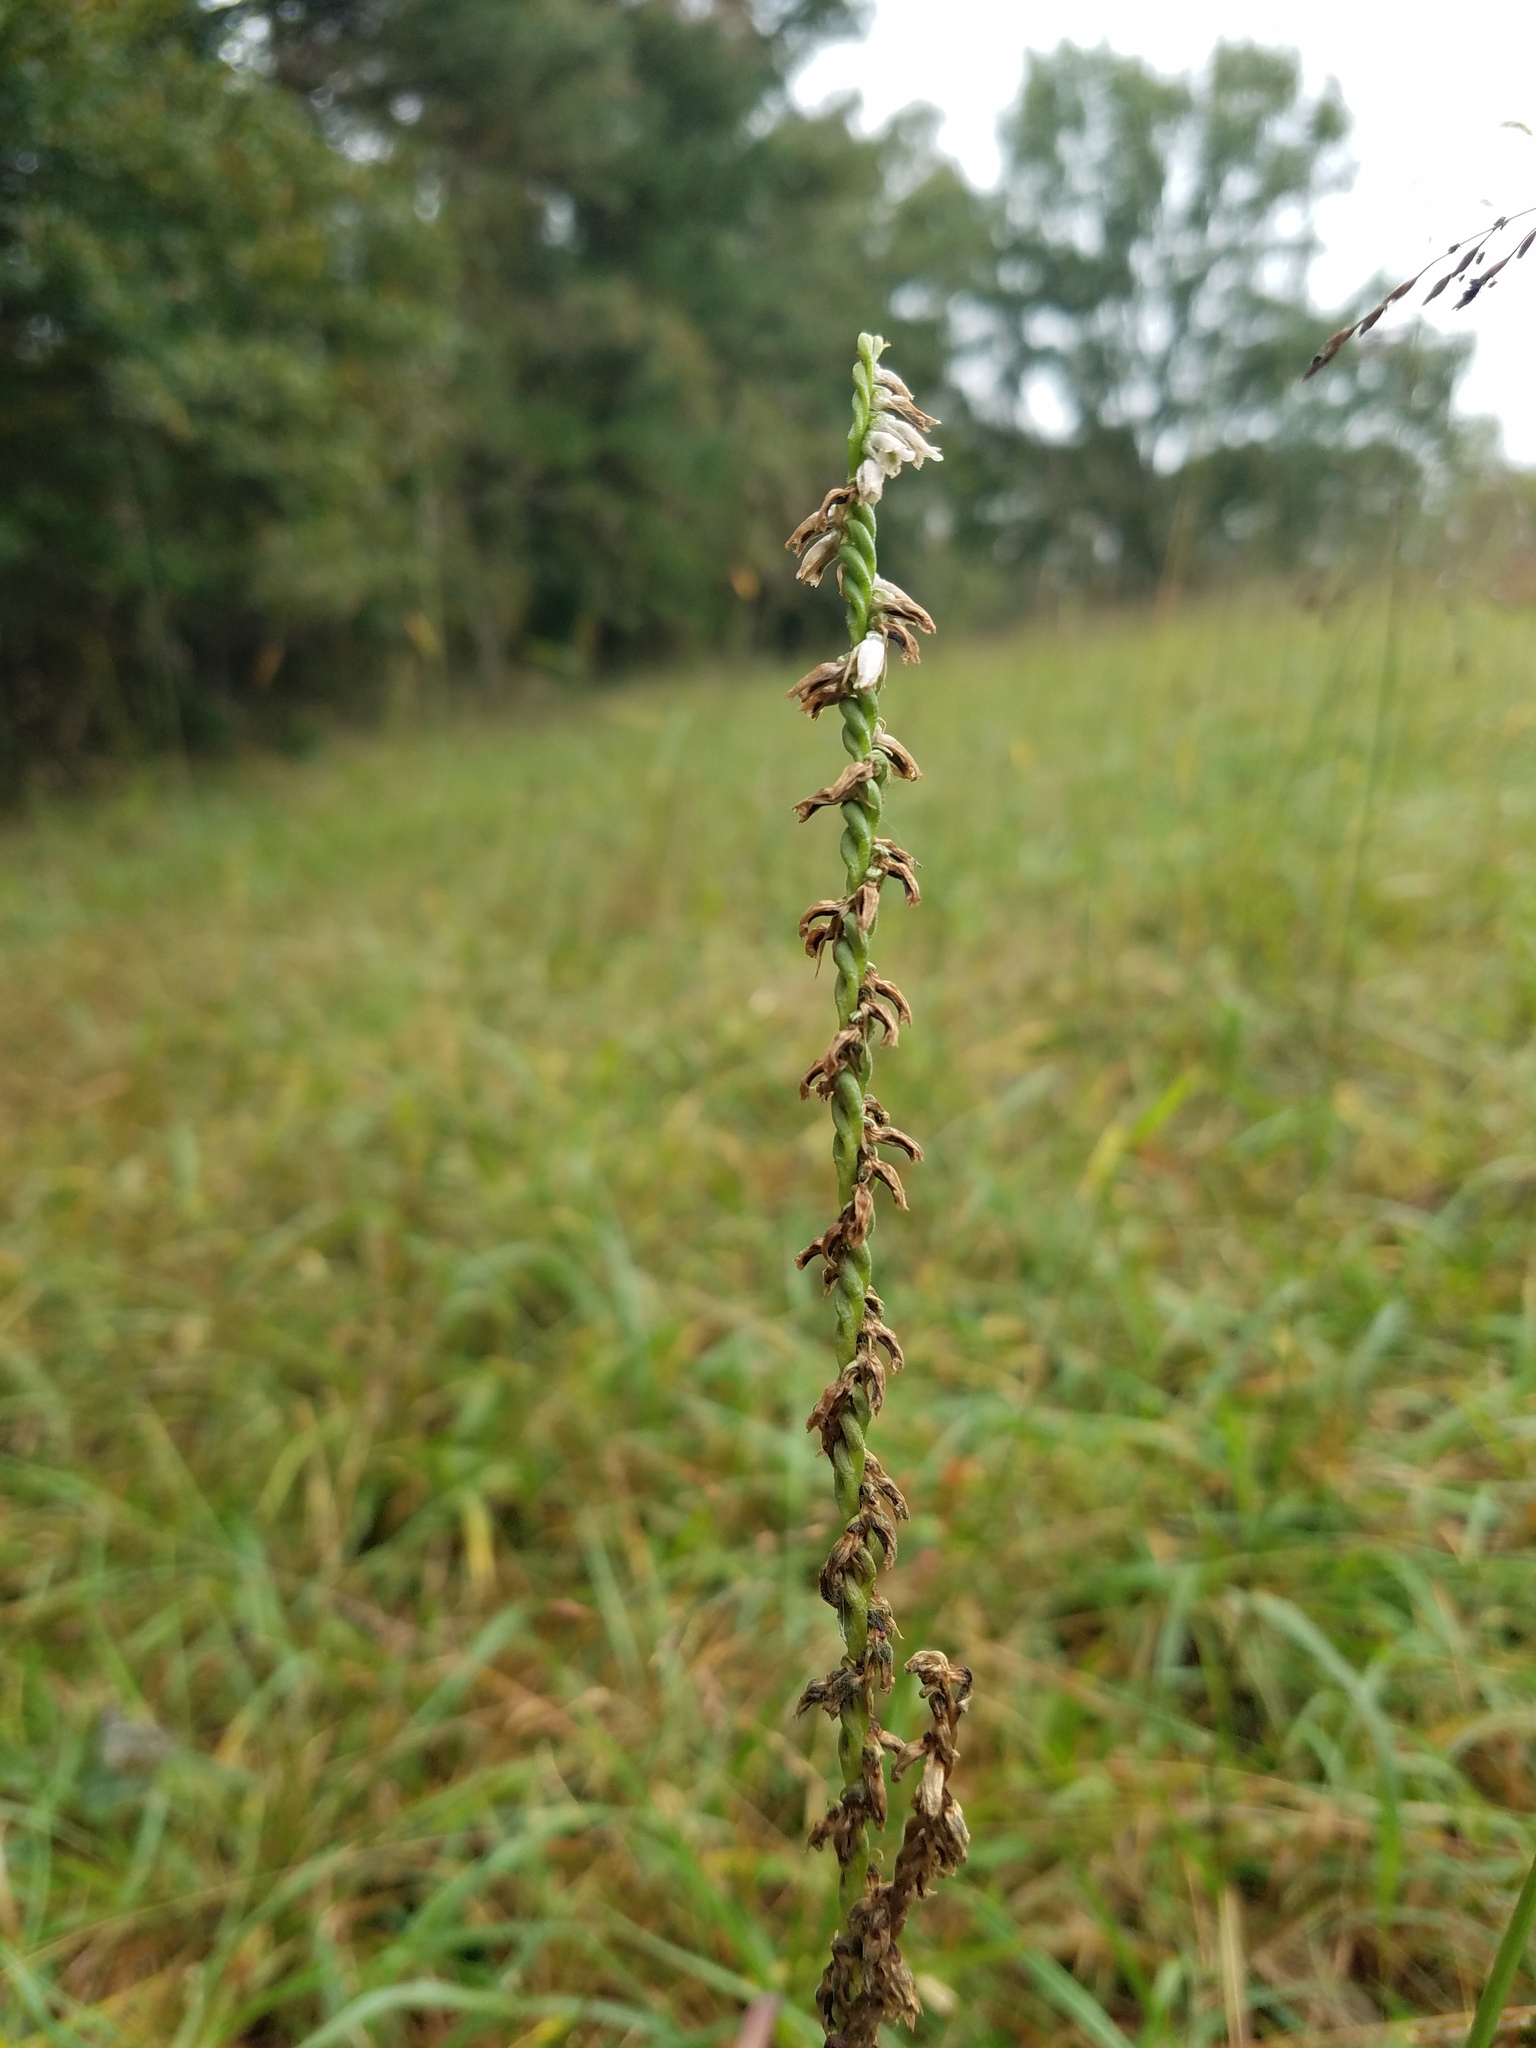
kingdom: Plantae
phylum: Tracheophyta
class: Liliopsida
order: Asparagales
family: Orchidaceae
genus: Spiranthes
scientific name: Spiranthes lacera
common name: Northern slender ladies'-tresses
